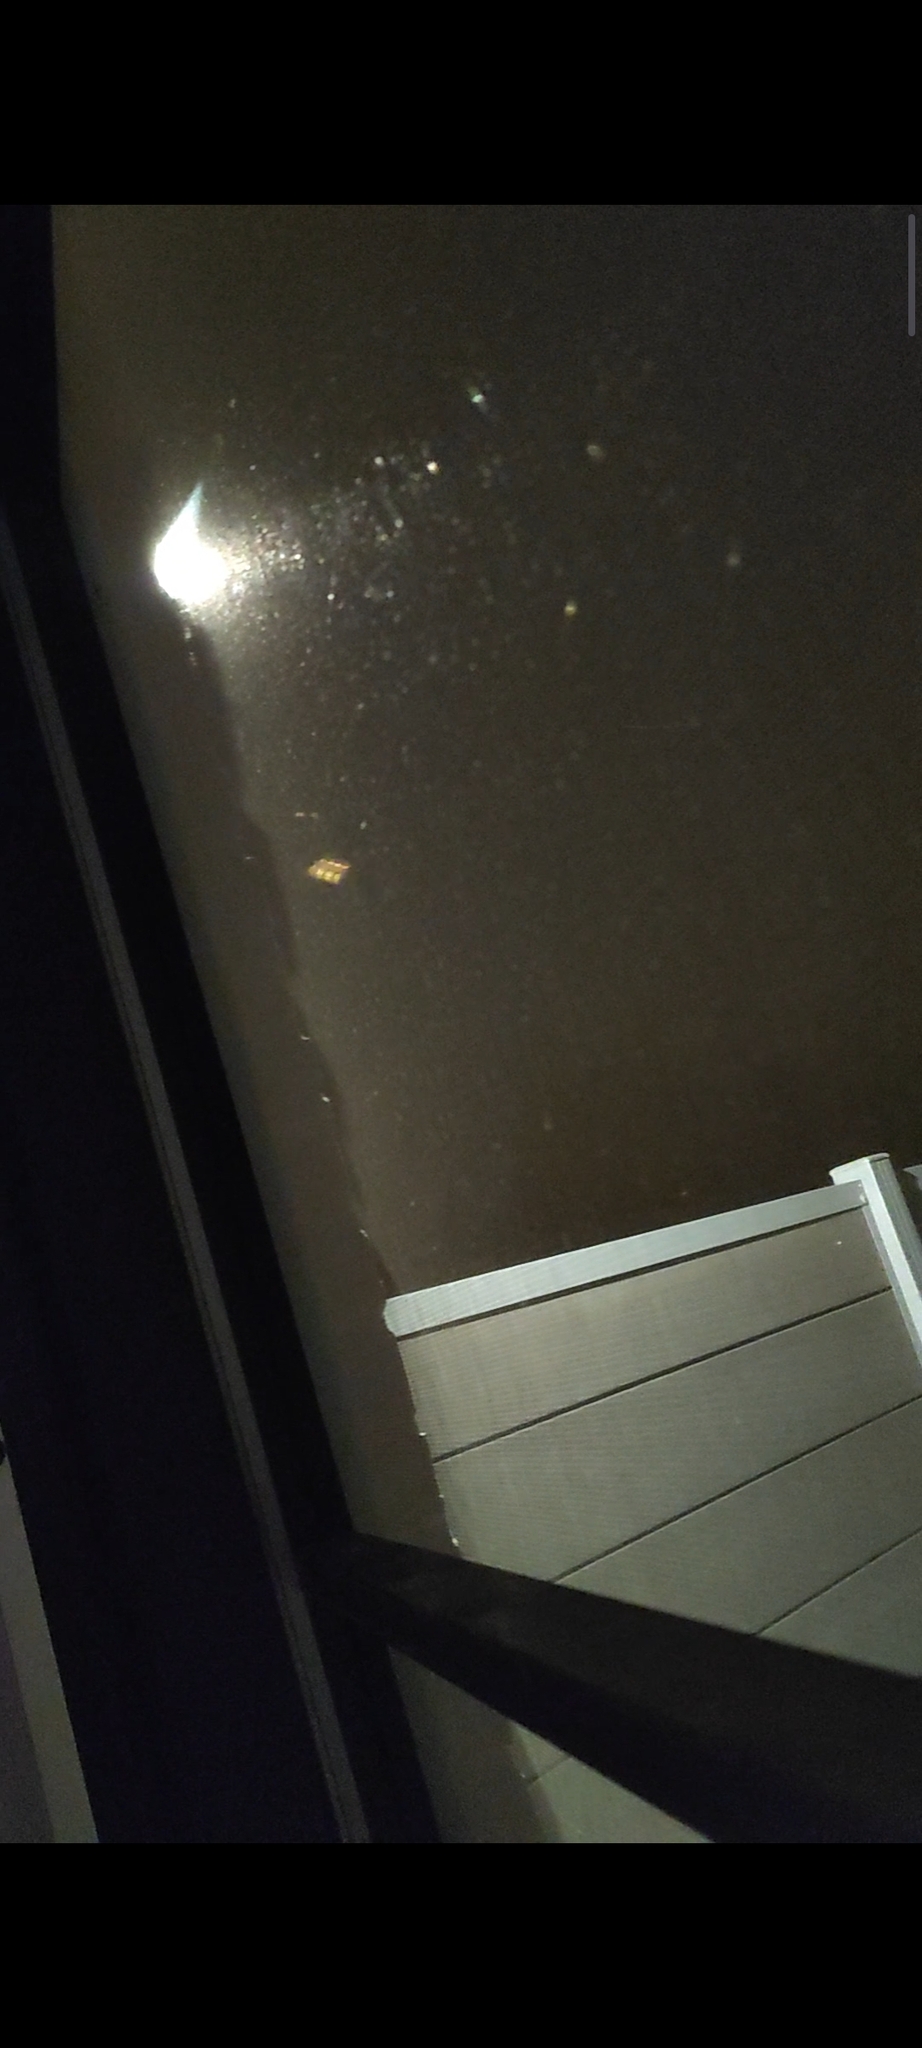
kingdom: Animalia
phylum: Arthropoda
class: Insecta
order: Hymenoptera
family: Vespidae
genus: Vespa
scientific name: Vespa crabro
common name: Hornet
